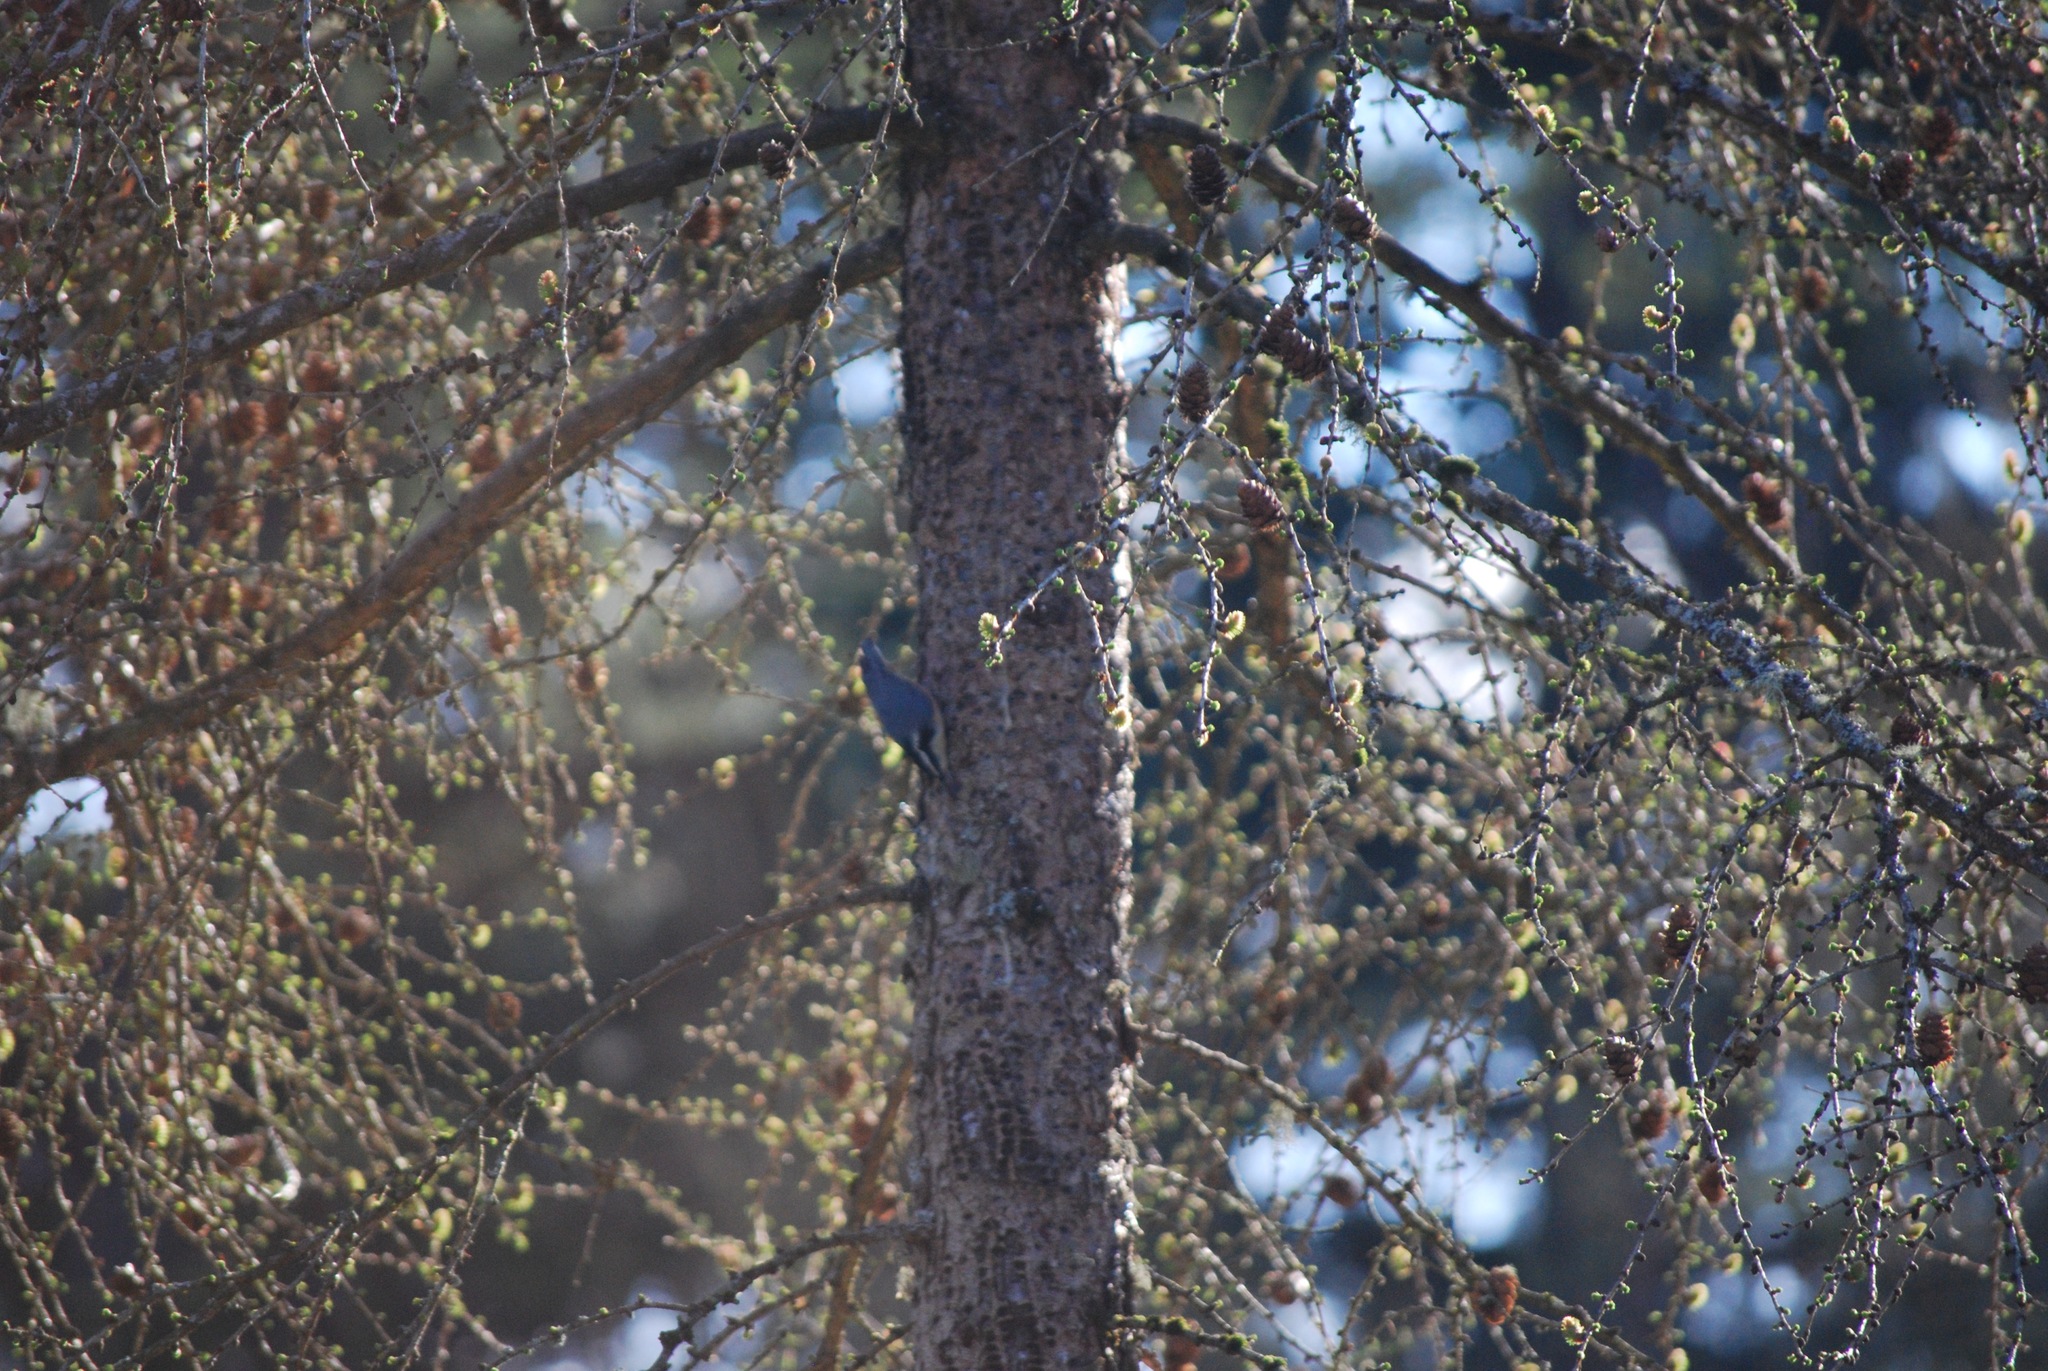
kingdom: Animalia
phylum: Chordata
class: Aves
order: Passeriformes
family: Sittidae
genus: Sitta
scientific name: Sitta canadensis
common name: Red-breasted nuthatch
